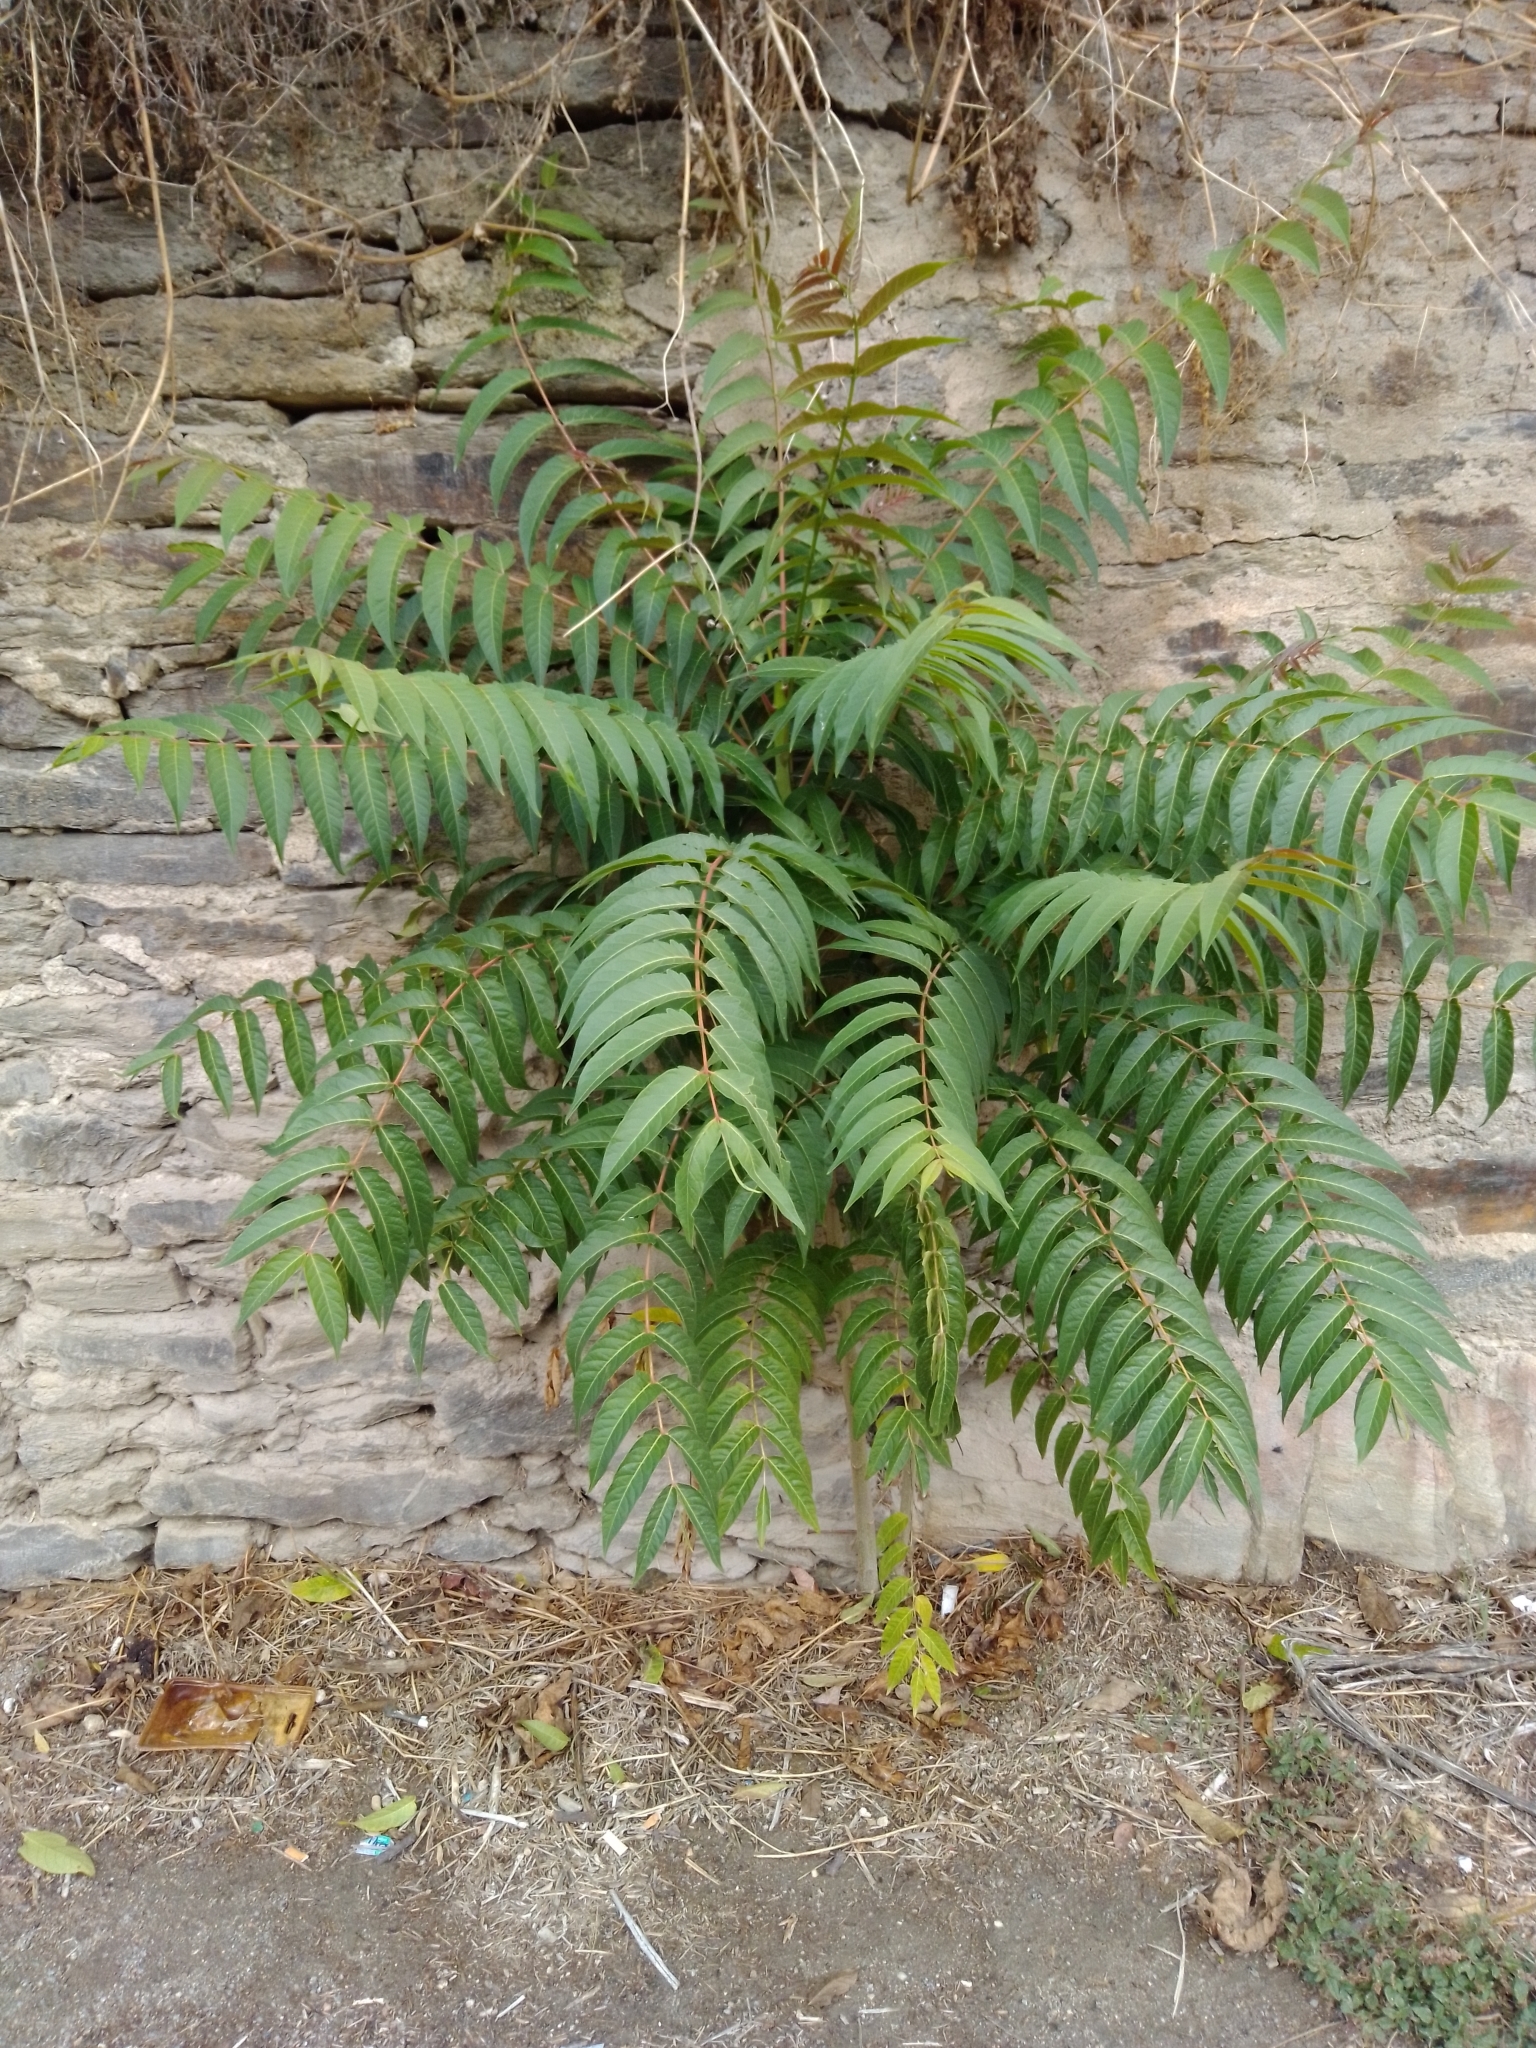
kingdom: Plantae
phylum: Tracheophyta
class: Magnoliopsida
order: Sapindales
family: Simaroubaceae
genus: Ailanthus
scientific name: Ailanthus altissima
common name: Tree-of-heaven
